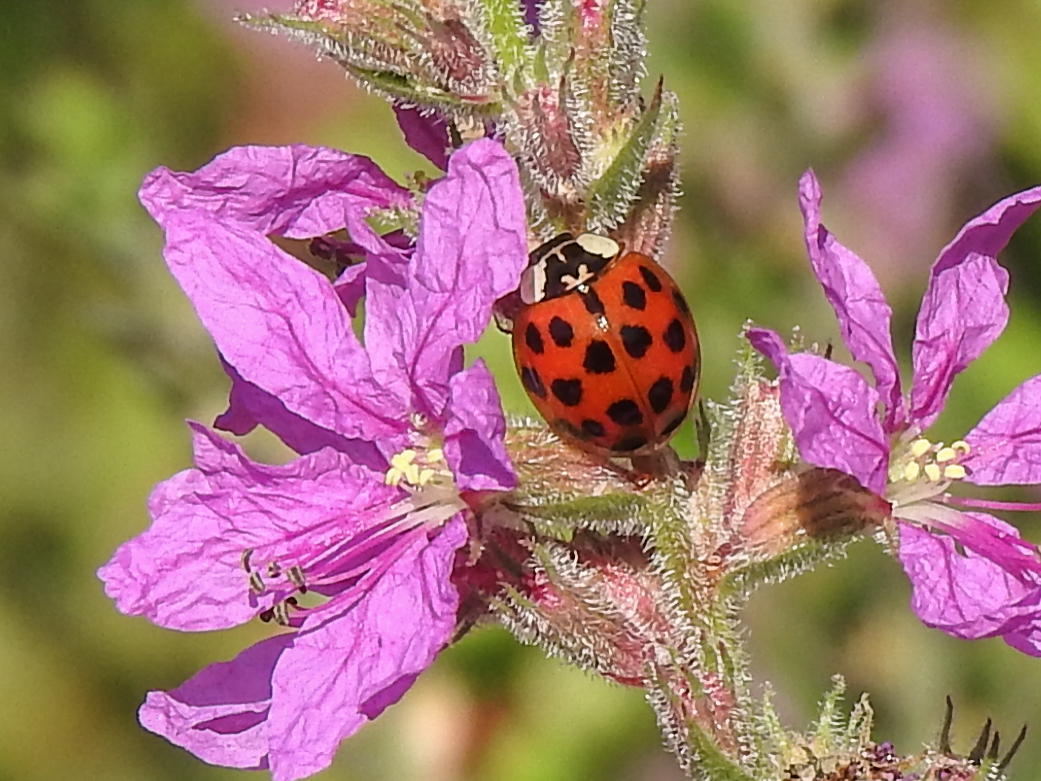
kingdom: Animalia
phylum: Arthropoda
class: Insecta
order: Coleoptera
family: Coccinellidae
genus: Harmonia
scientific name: Harmonia axyridis
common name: Harlequin ladybird
